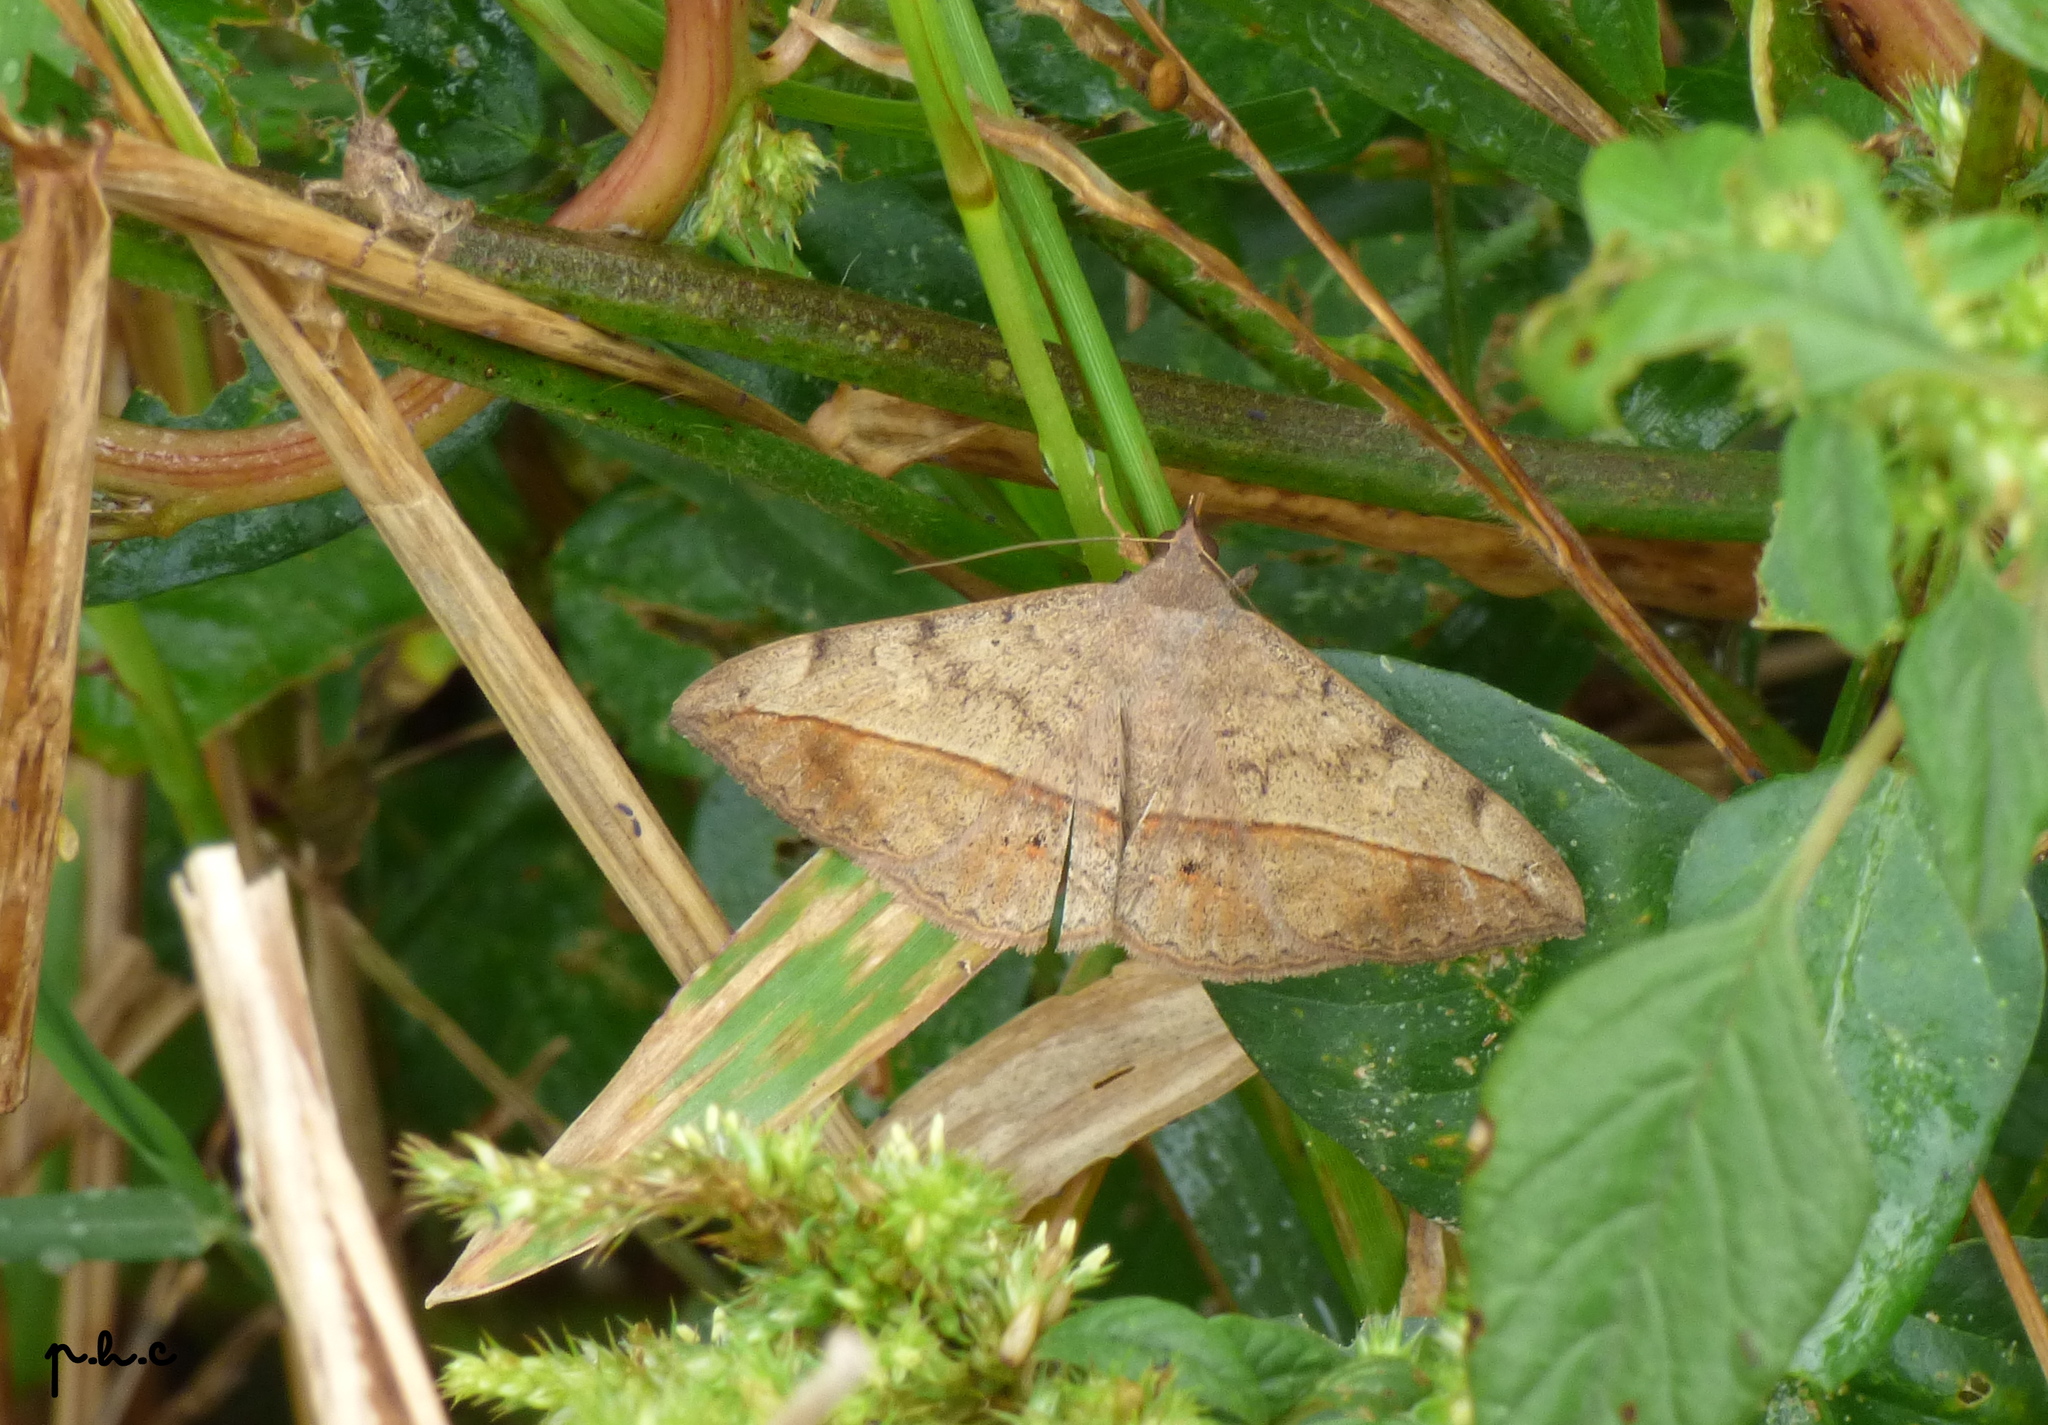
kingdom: Animalia
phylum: Arthropoda
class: Insecta
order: Lepidoptera
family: Erebidae
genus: Anticarsia
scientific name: Anticarsia gemmatalis
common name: Cutworm moth
